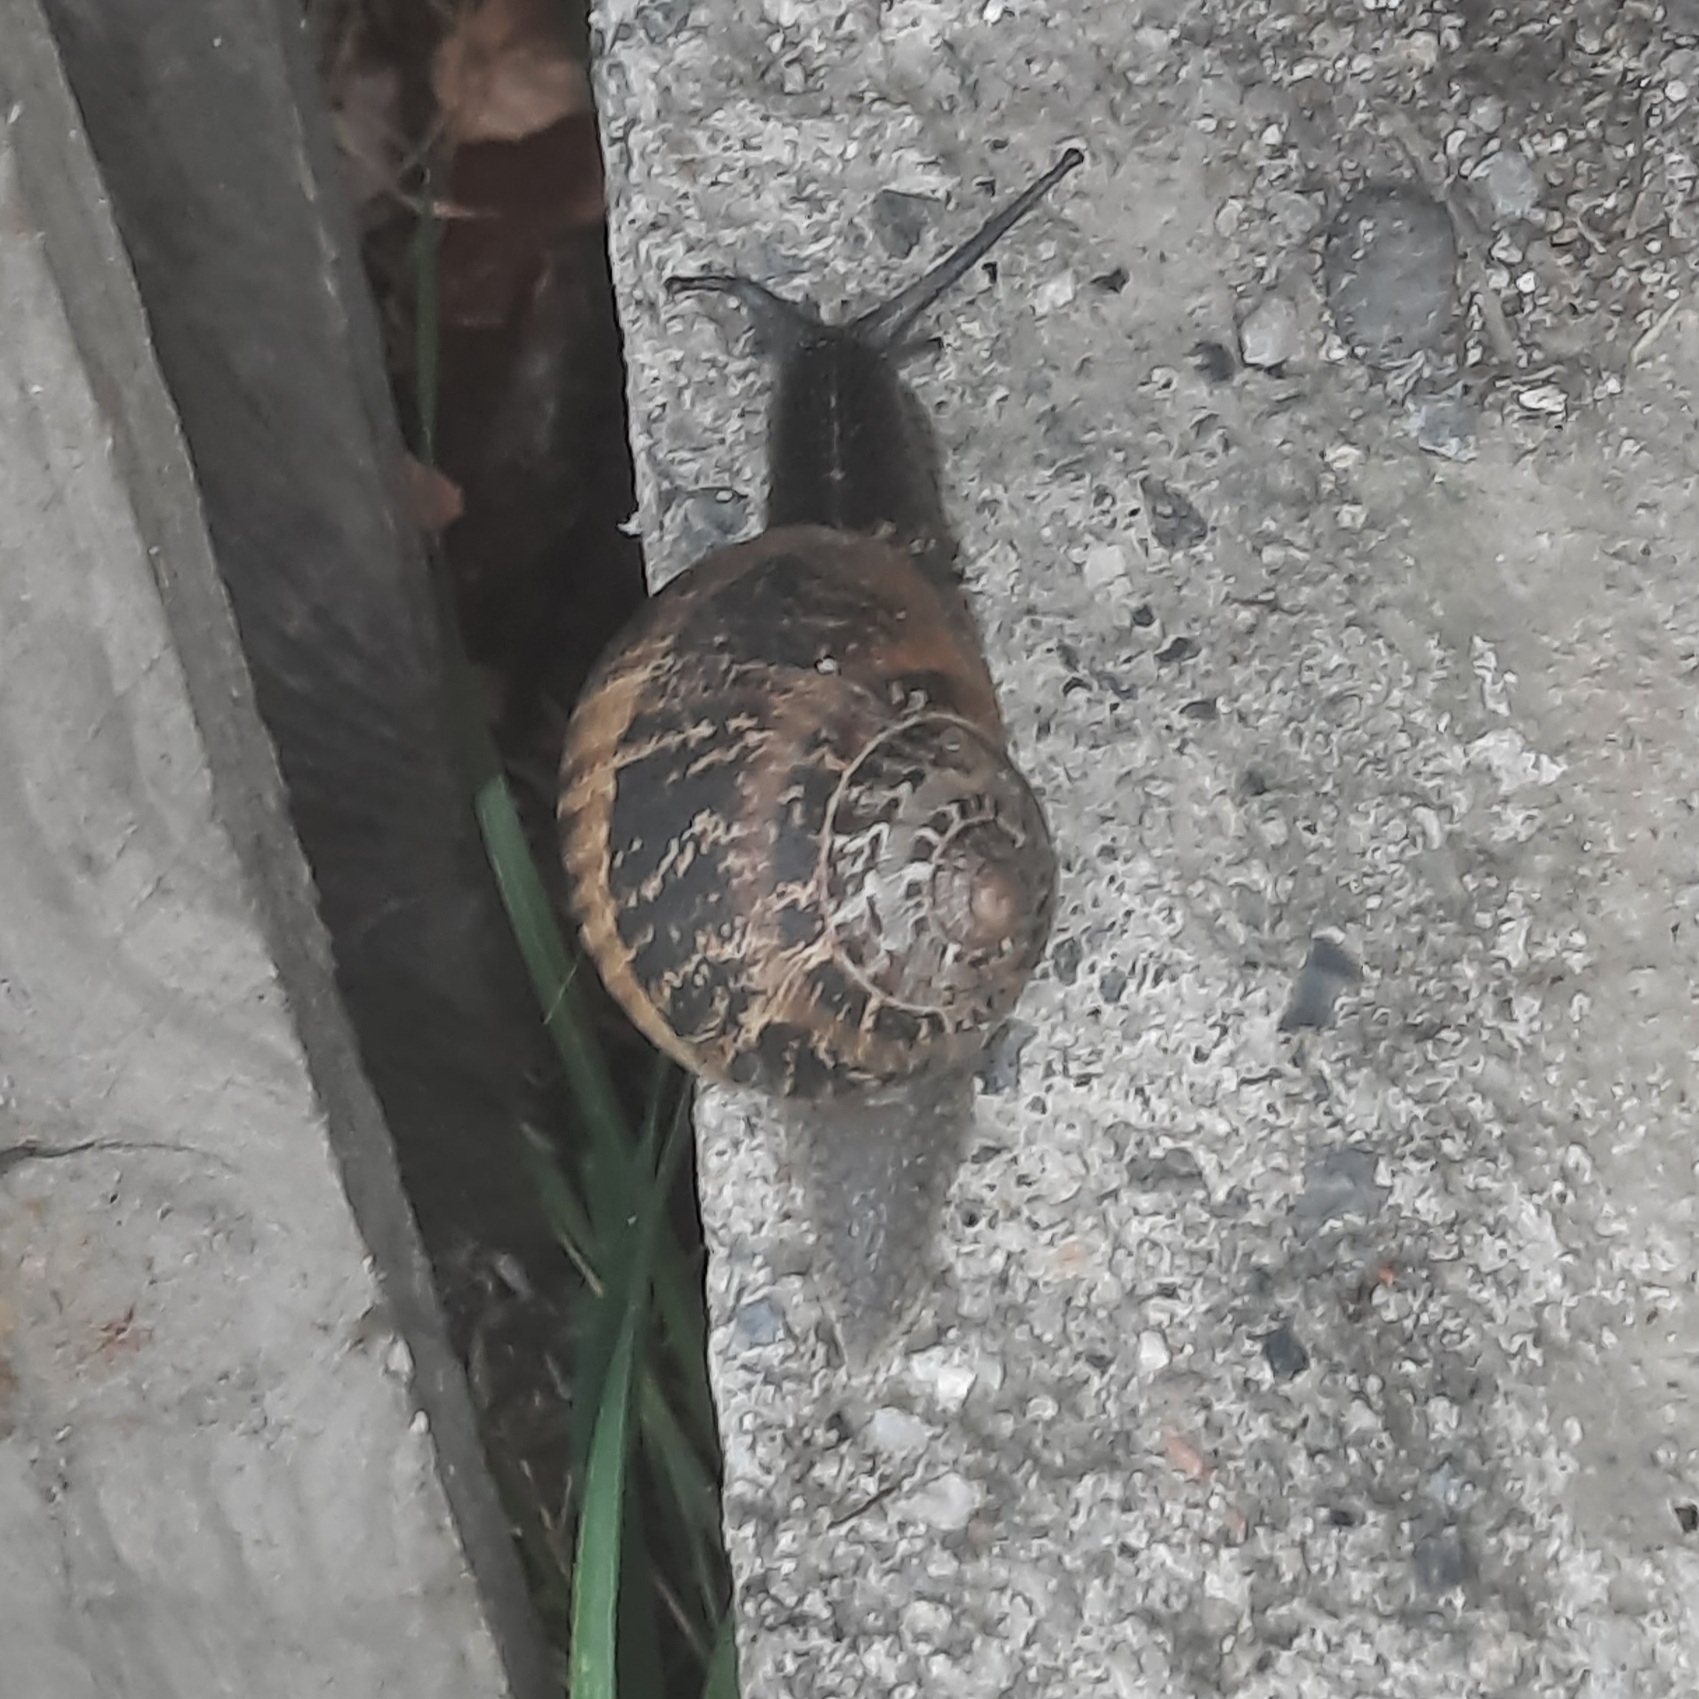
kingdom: Animalia
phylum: Mollusca
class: Gastropoda
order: Stylommatophora
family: Helicidae
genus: Cornu
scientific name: Cornu aspersum
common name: Brown garden snail
